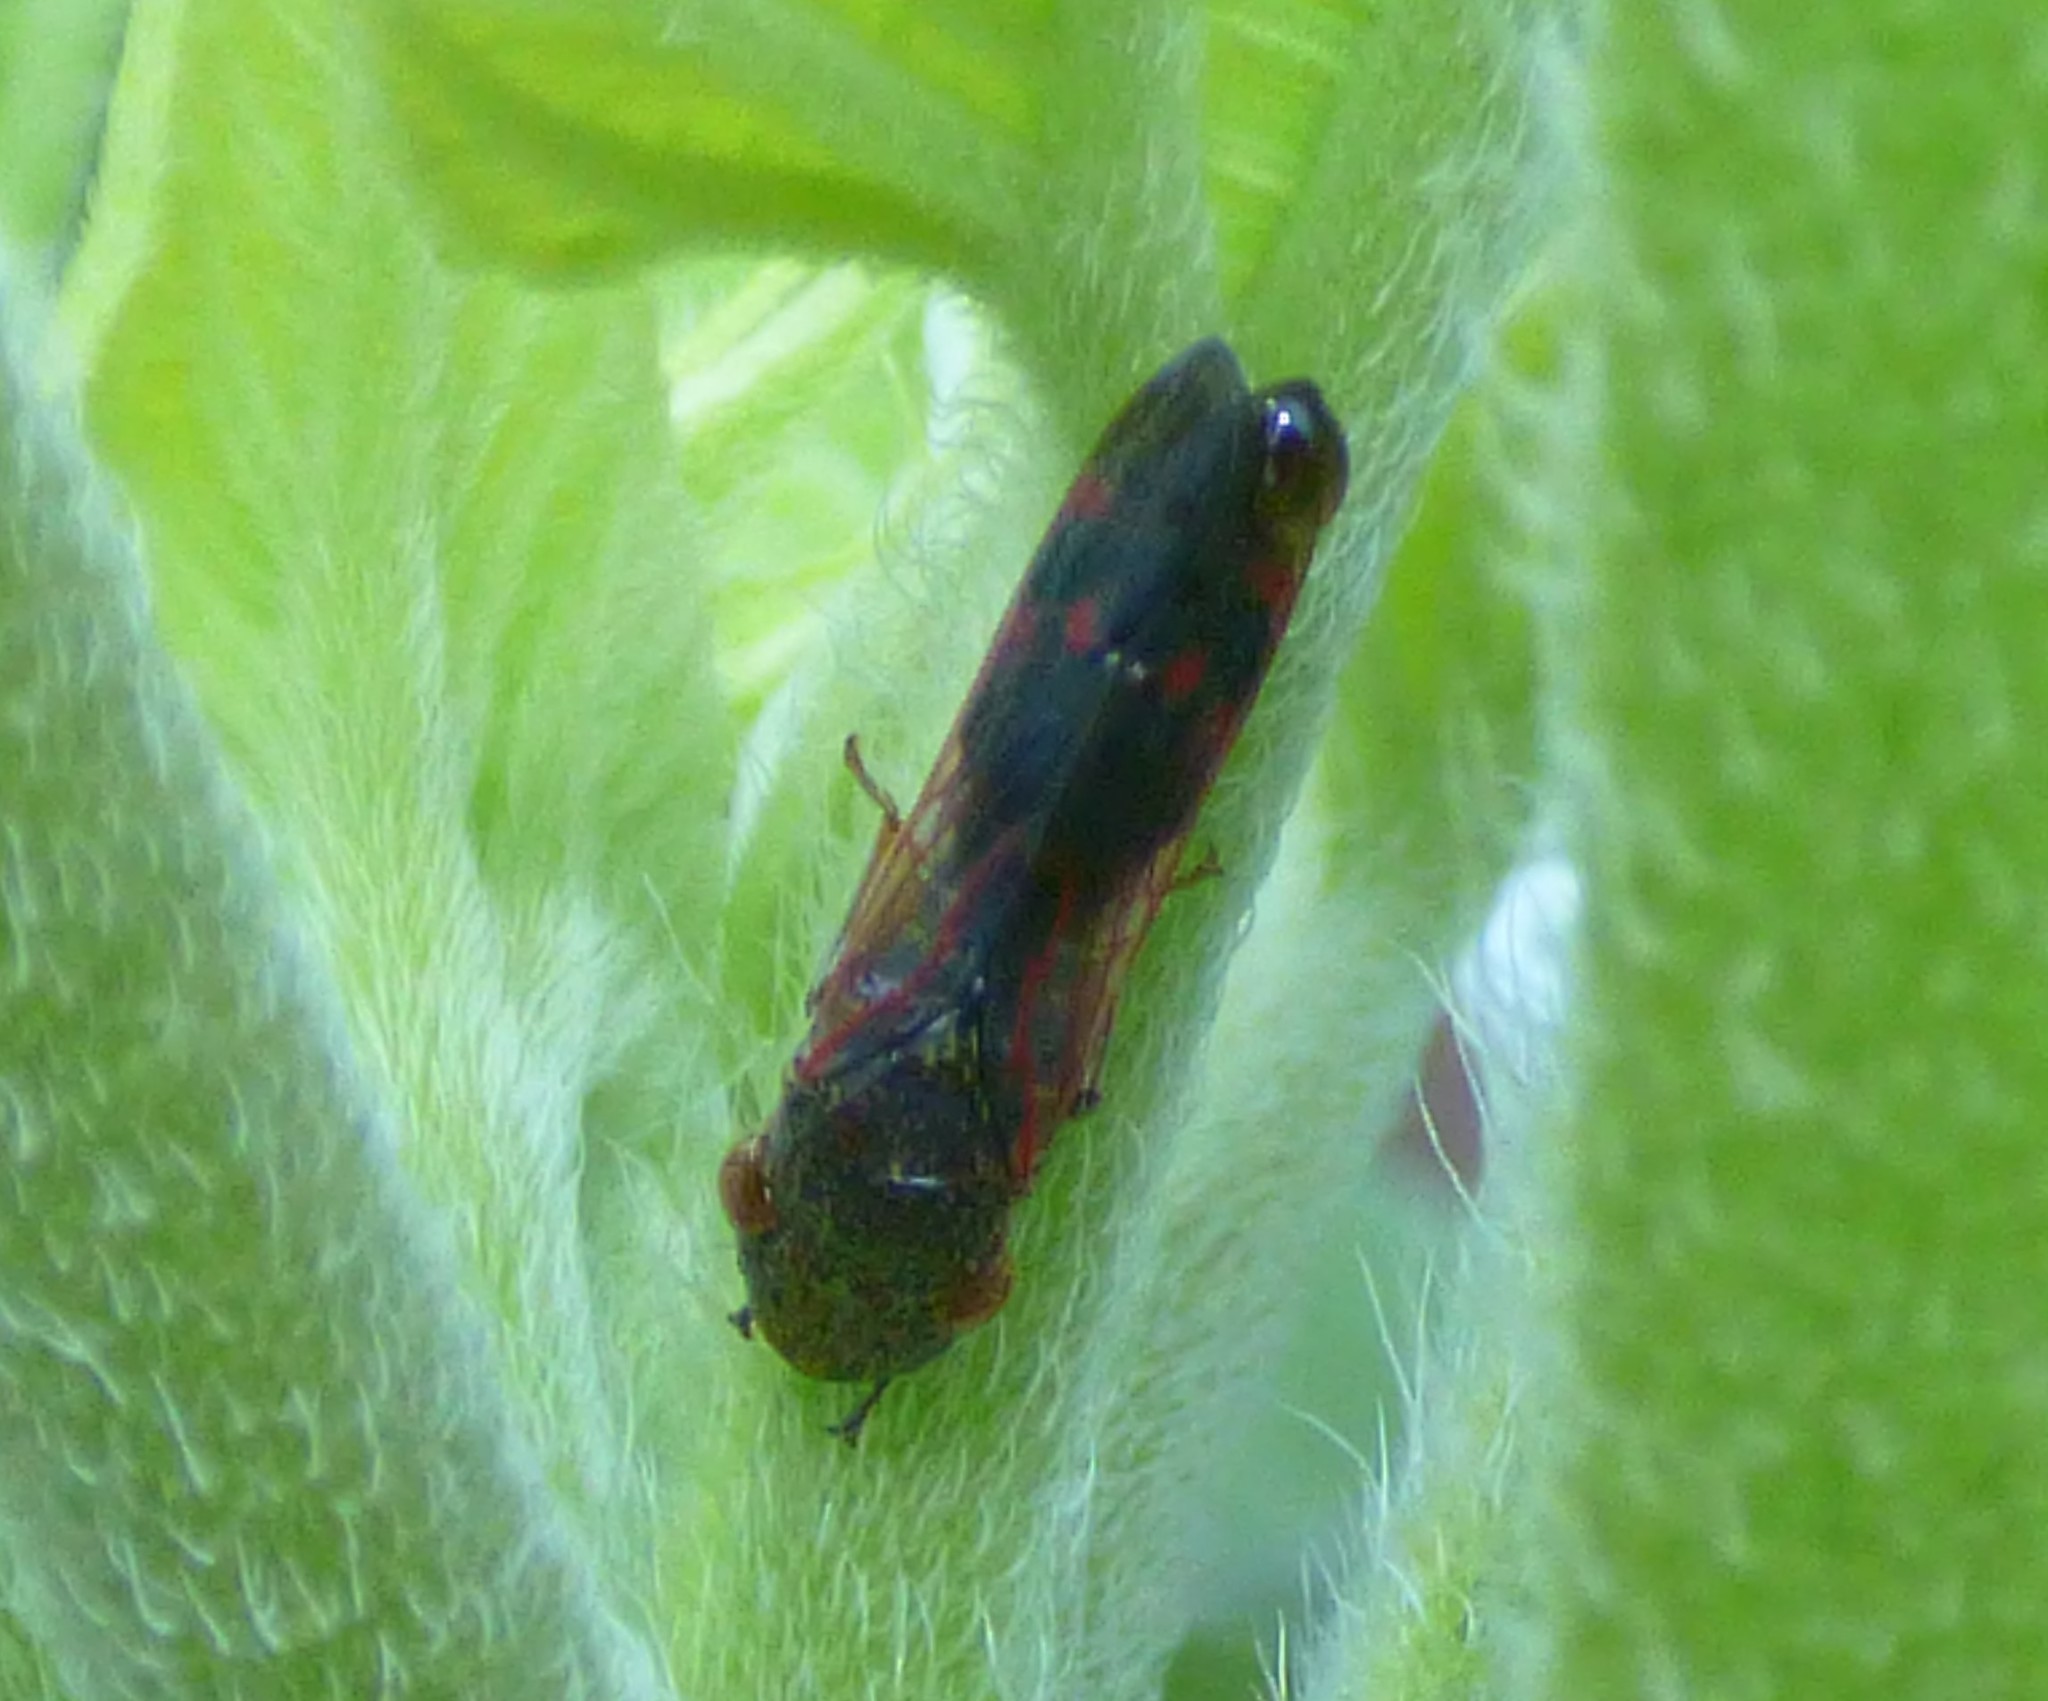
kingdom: Animalia
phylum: Arthropoda
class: Insecta
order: Hemiptera
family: Cicadellidae
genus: Homalodisca
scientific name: Homalodisca vitripennis
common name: Glassy-winged sharpshooter
